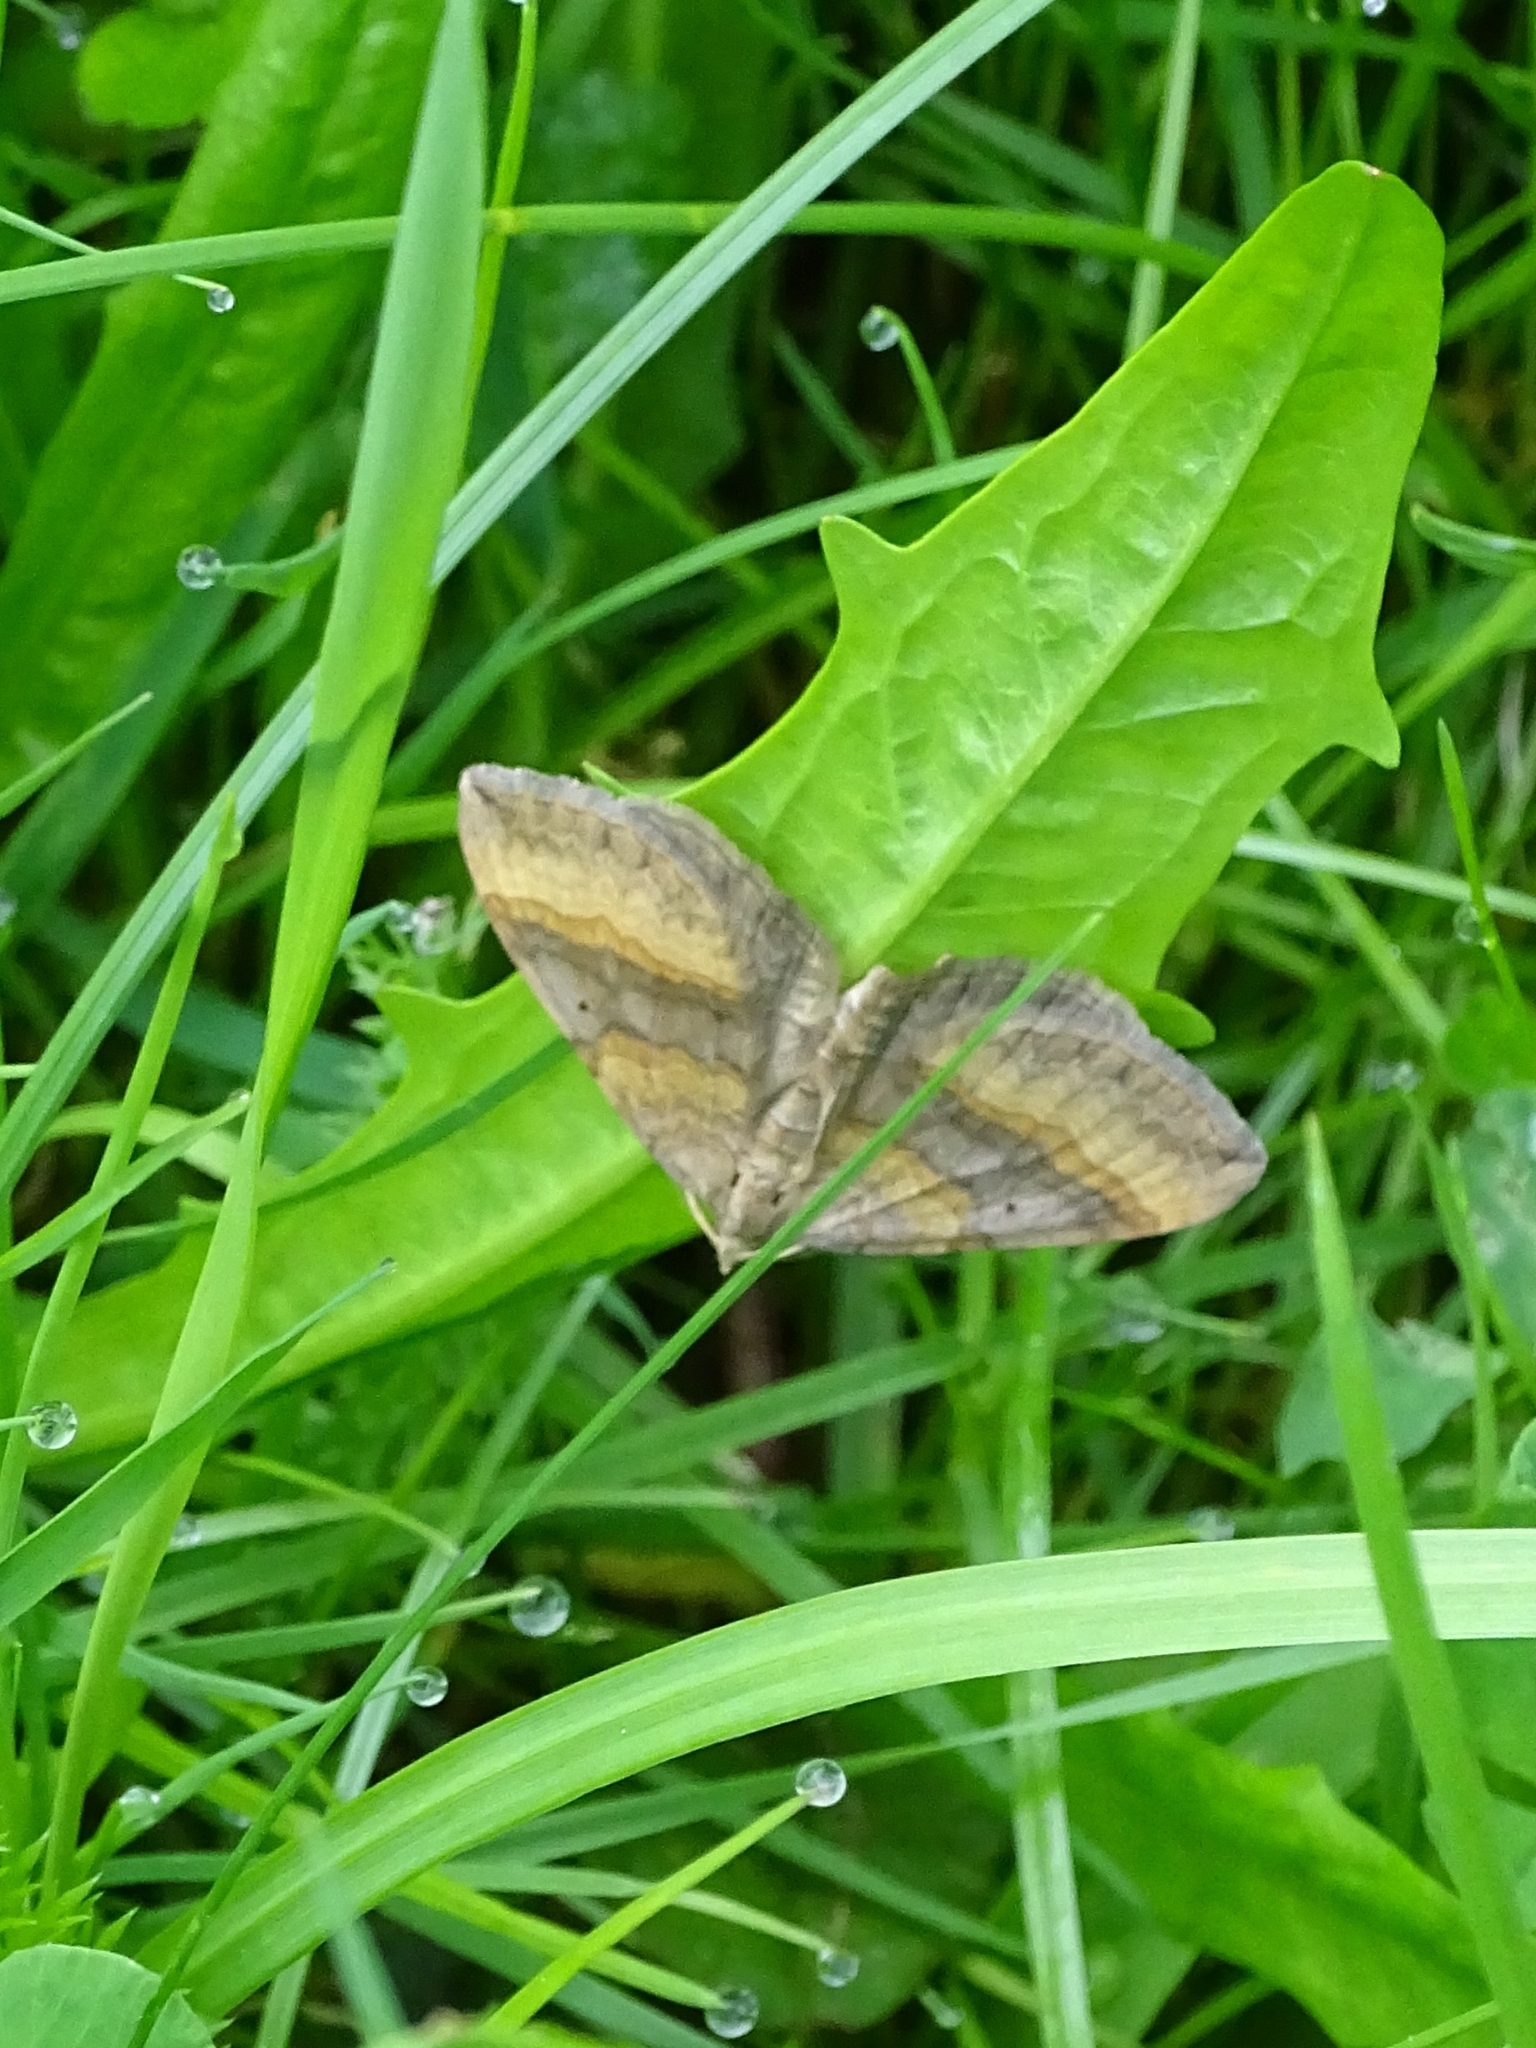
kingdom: Animalia
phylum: Arthropoda
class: Insecta
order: Lepidoptera
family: Geometridae
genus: Scotopteryx
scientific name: Scotopteryx chenopodiata
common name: Shaded broad-bar
